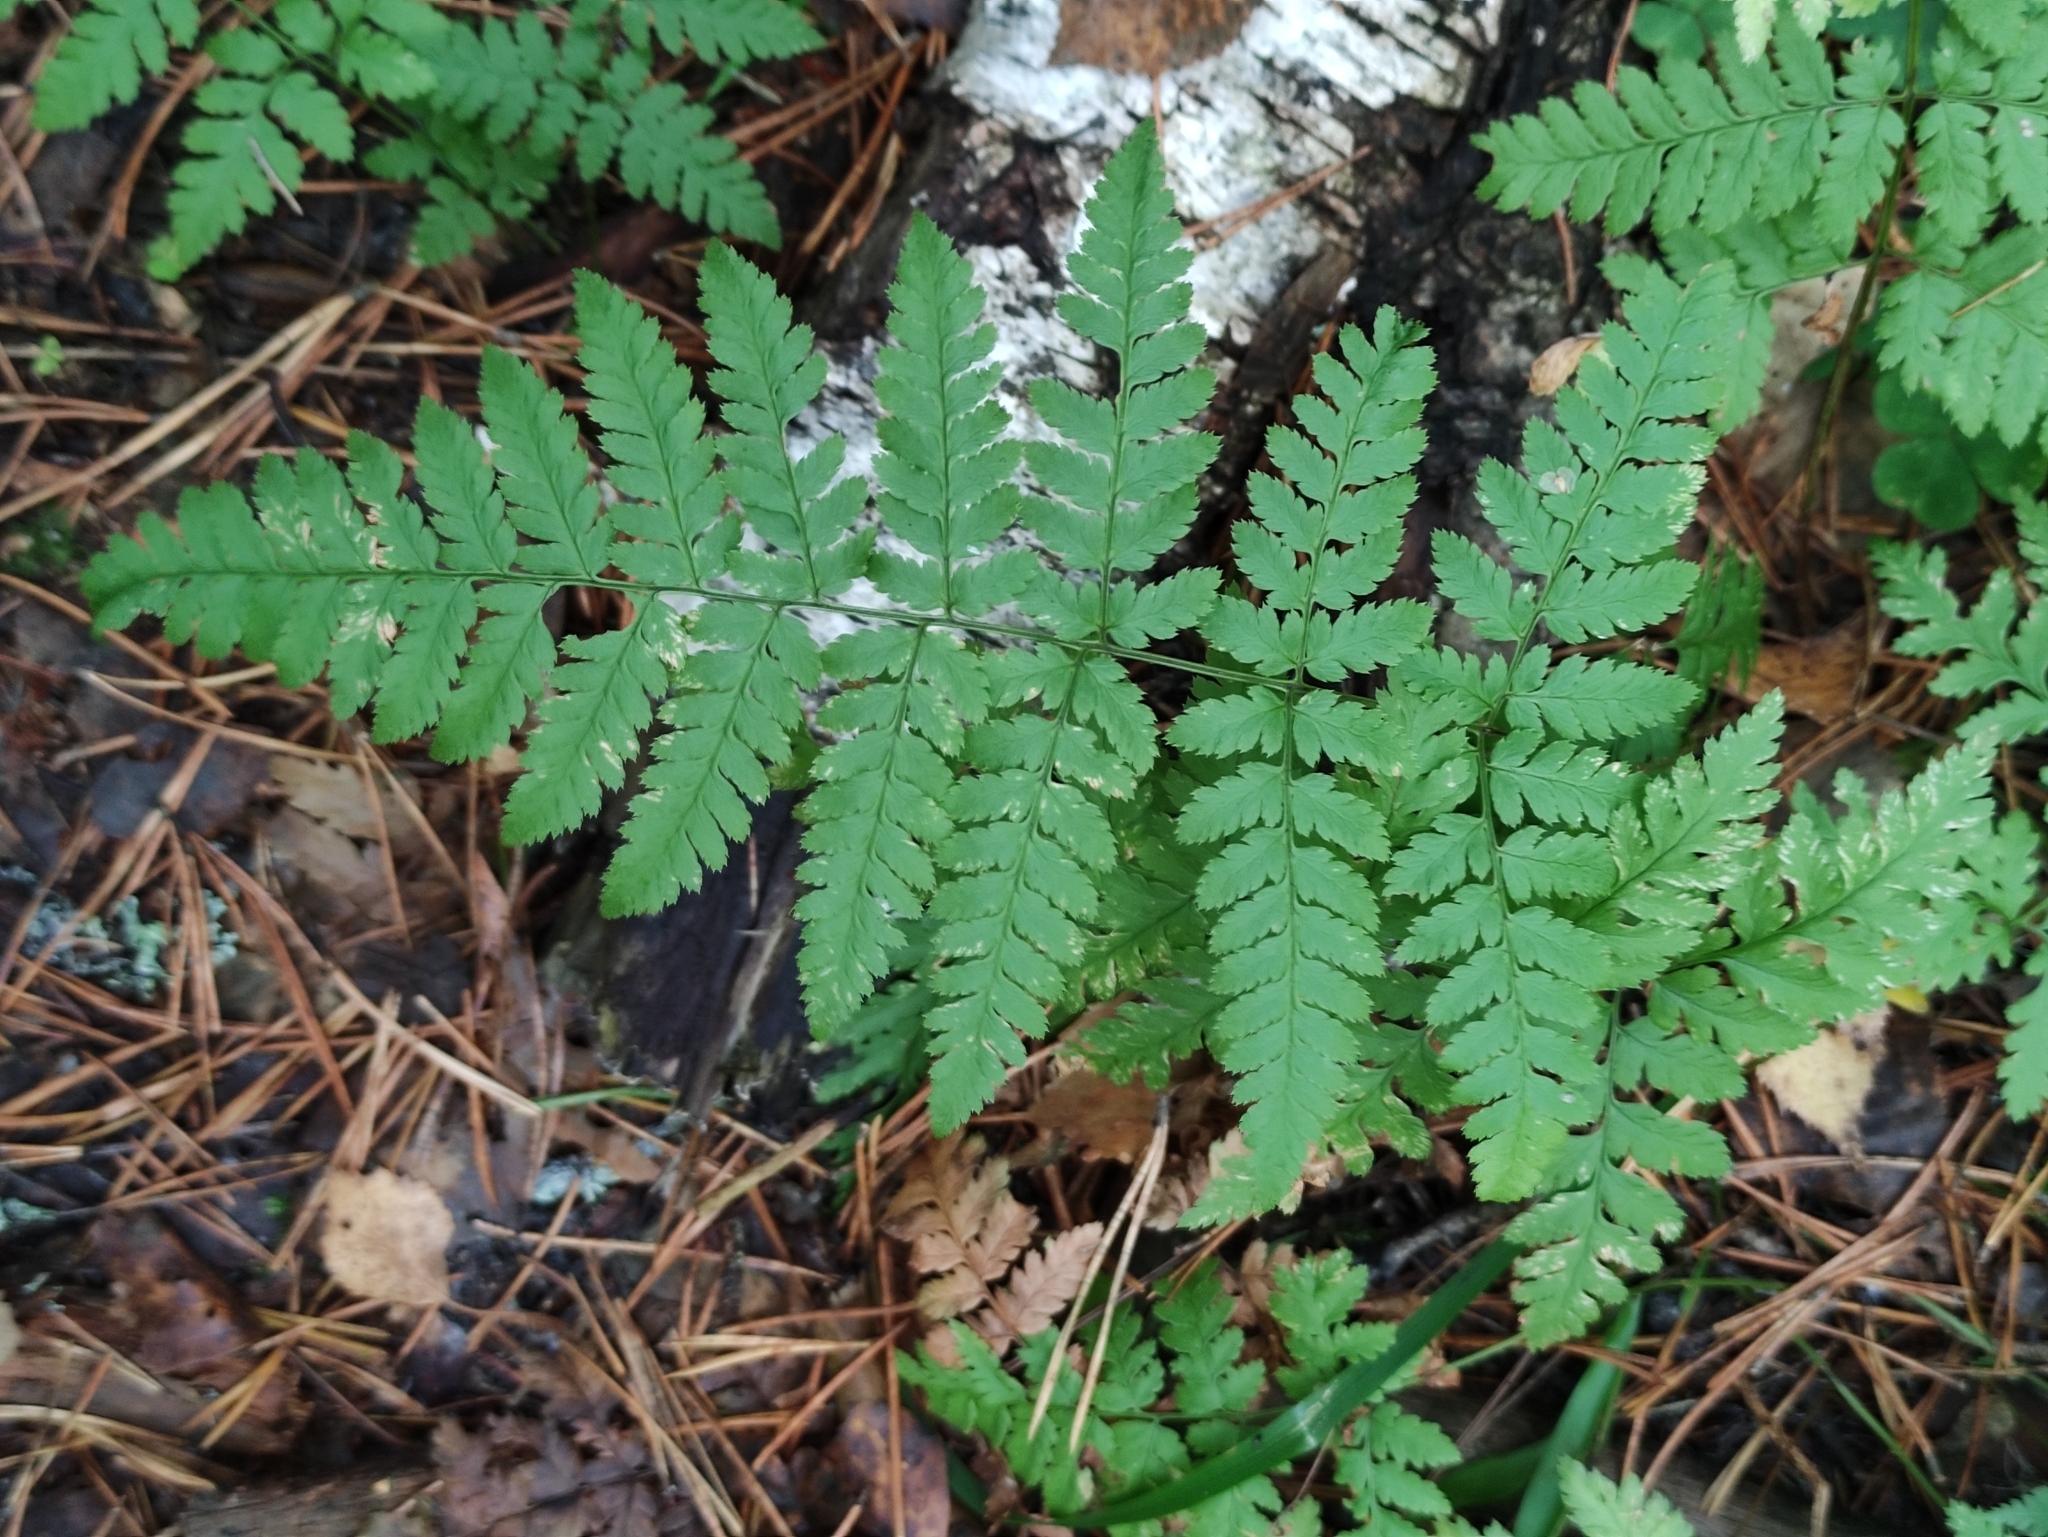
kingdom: Plantae
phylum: Tracheophyta
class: Polypodiopsida
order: Polypodiales
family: Dryopteridaceae
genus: Dryopteris
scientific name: Dryopteris carthusiana
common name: Narrow buckler-fern
